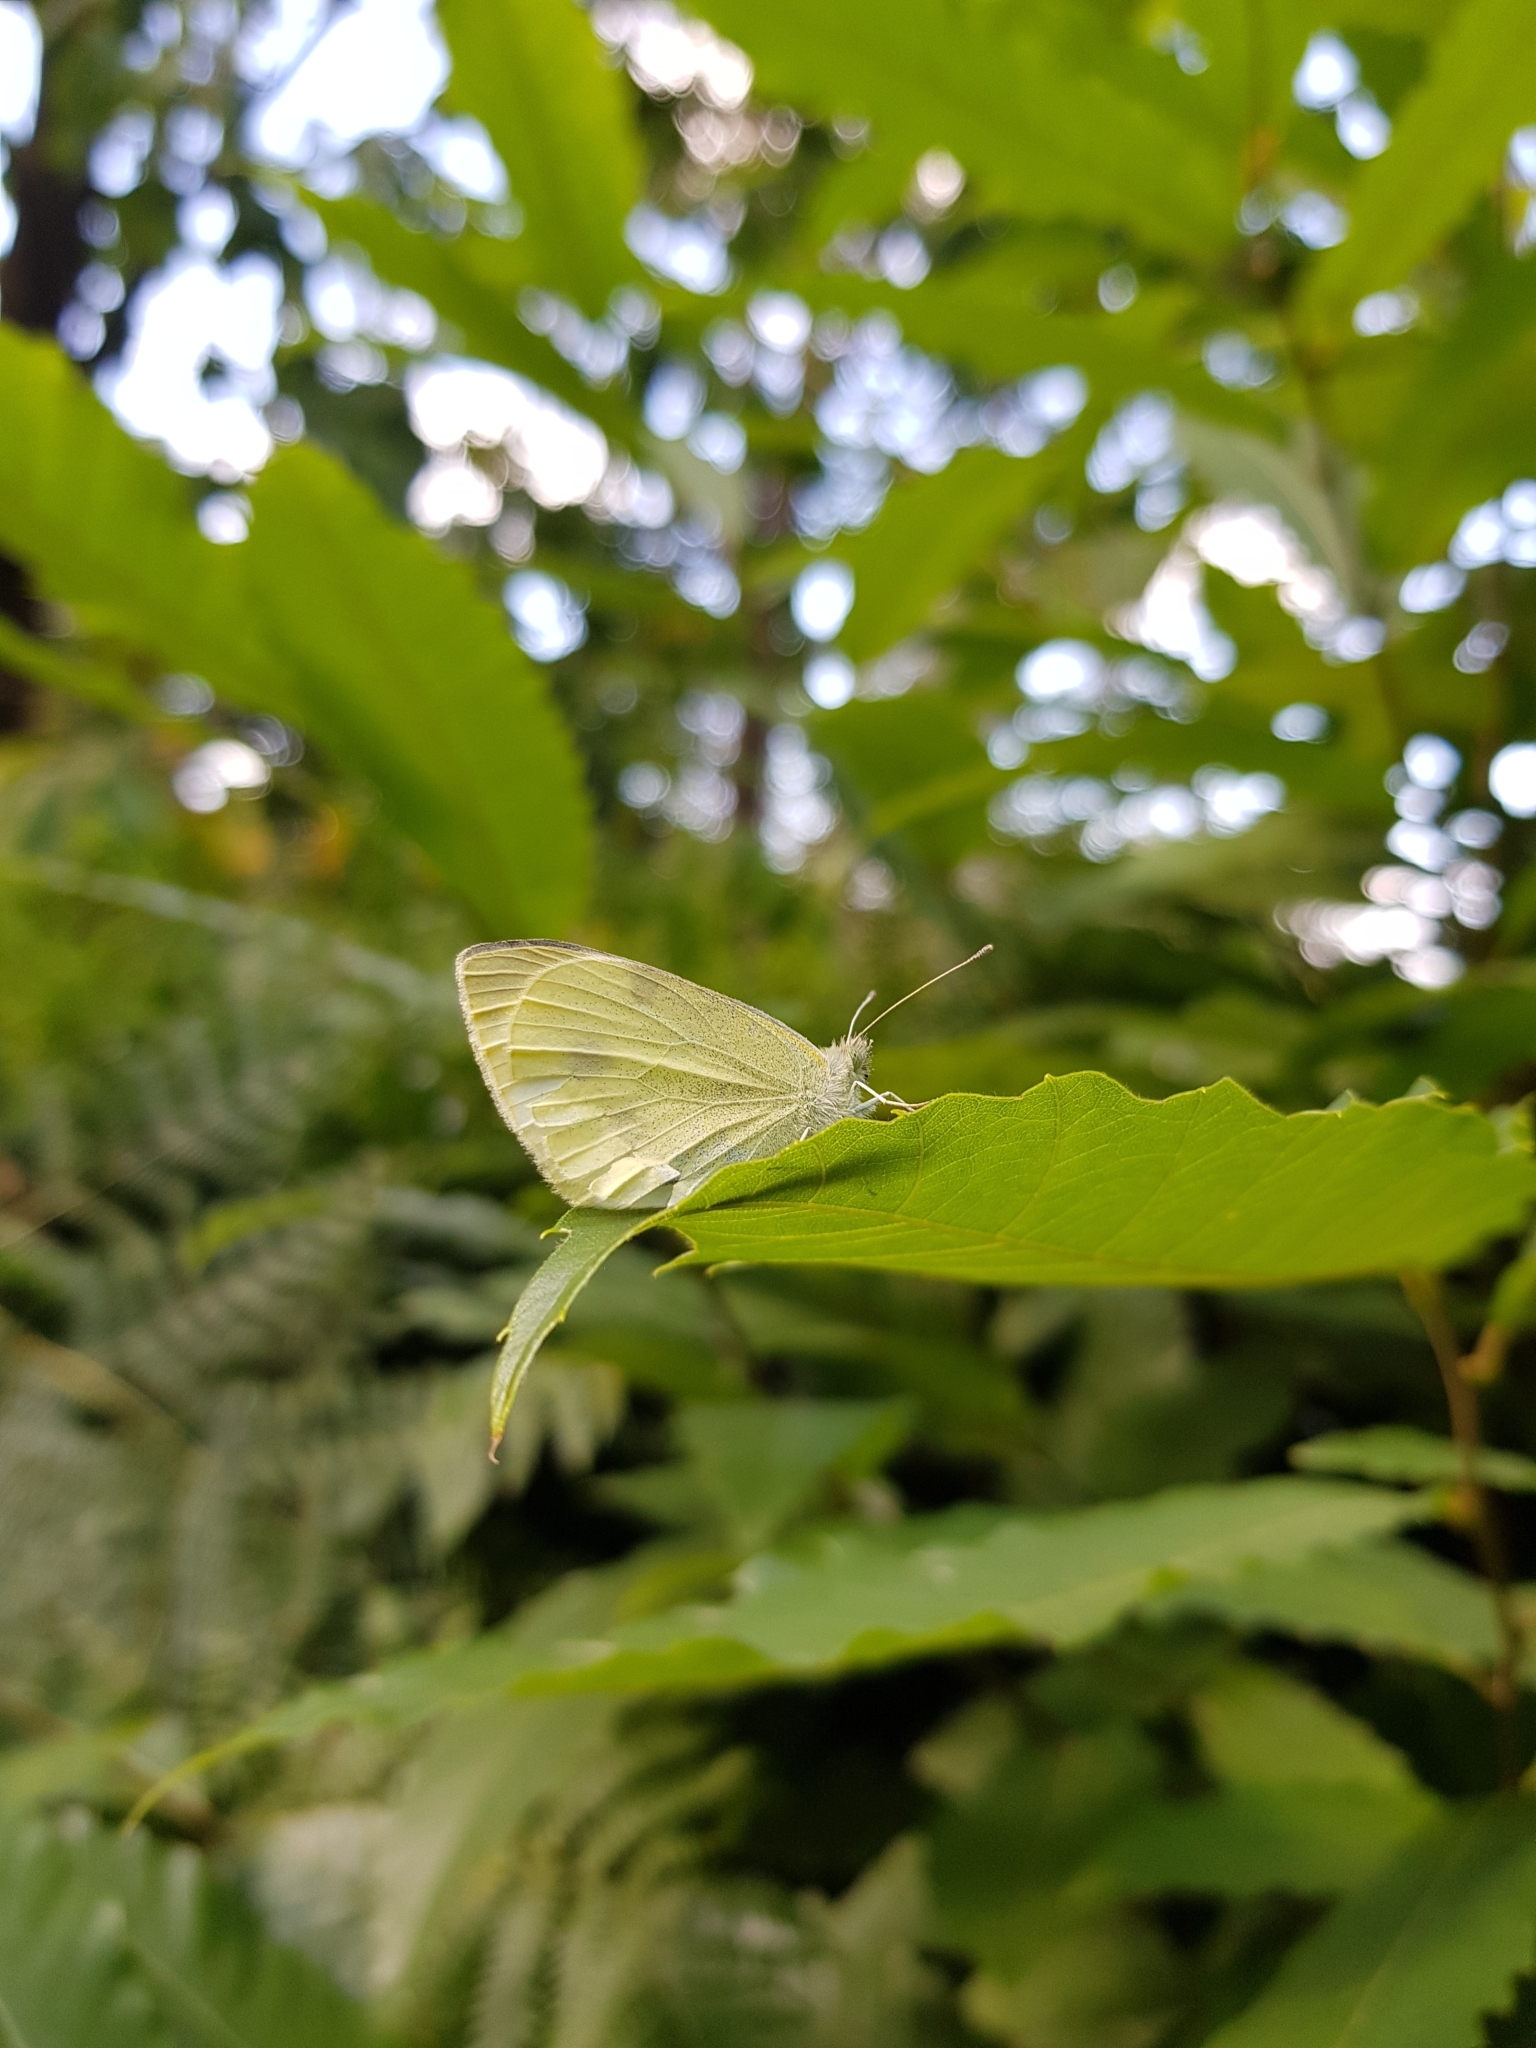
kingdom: Animalia
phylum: Arthropoda
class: Insecta
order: Lepidoptera
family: Pieridae
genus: Pieris
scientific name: Pieris rapae
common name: Small white
